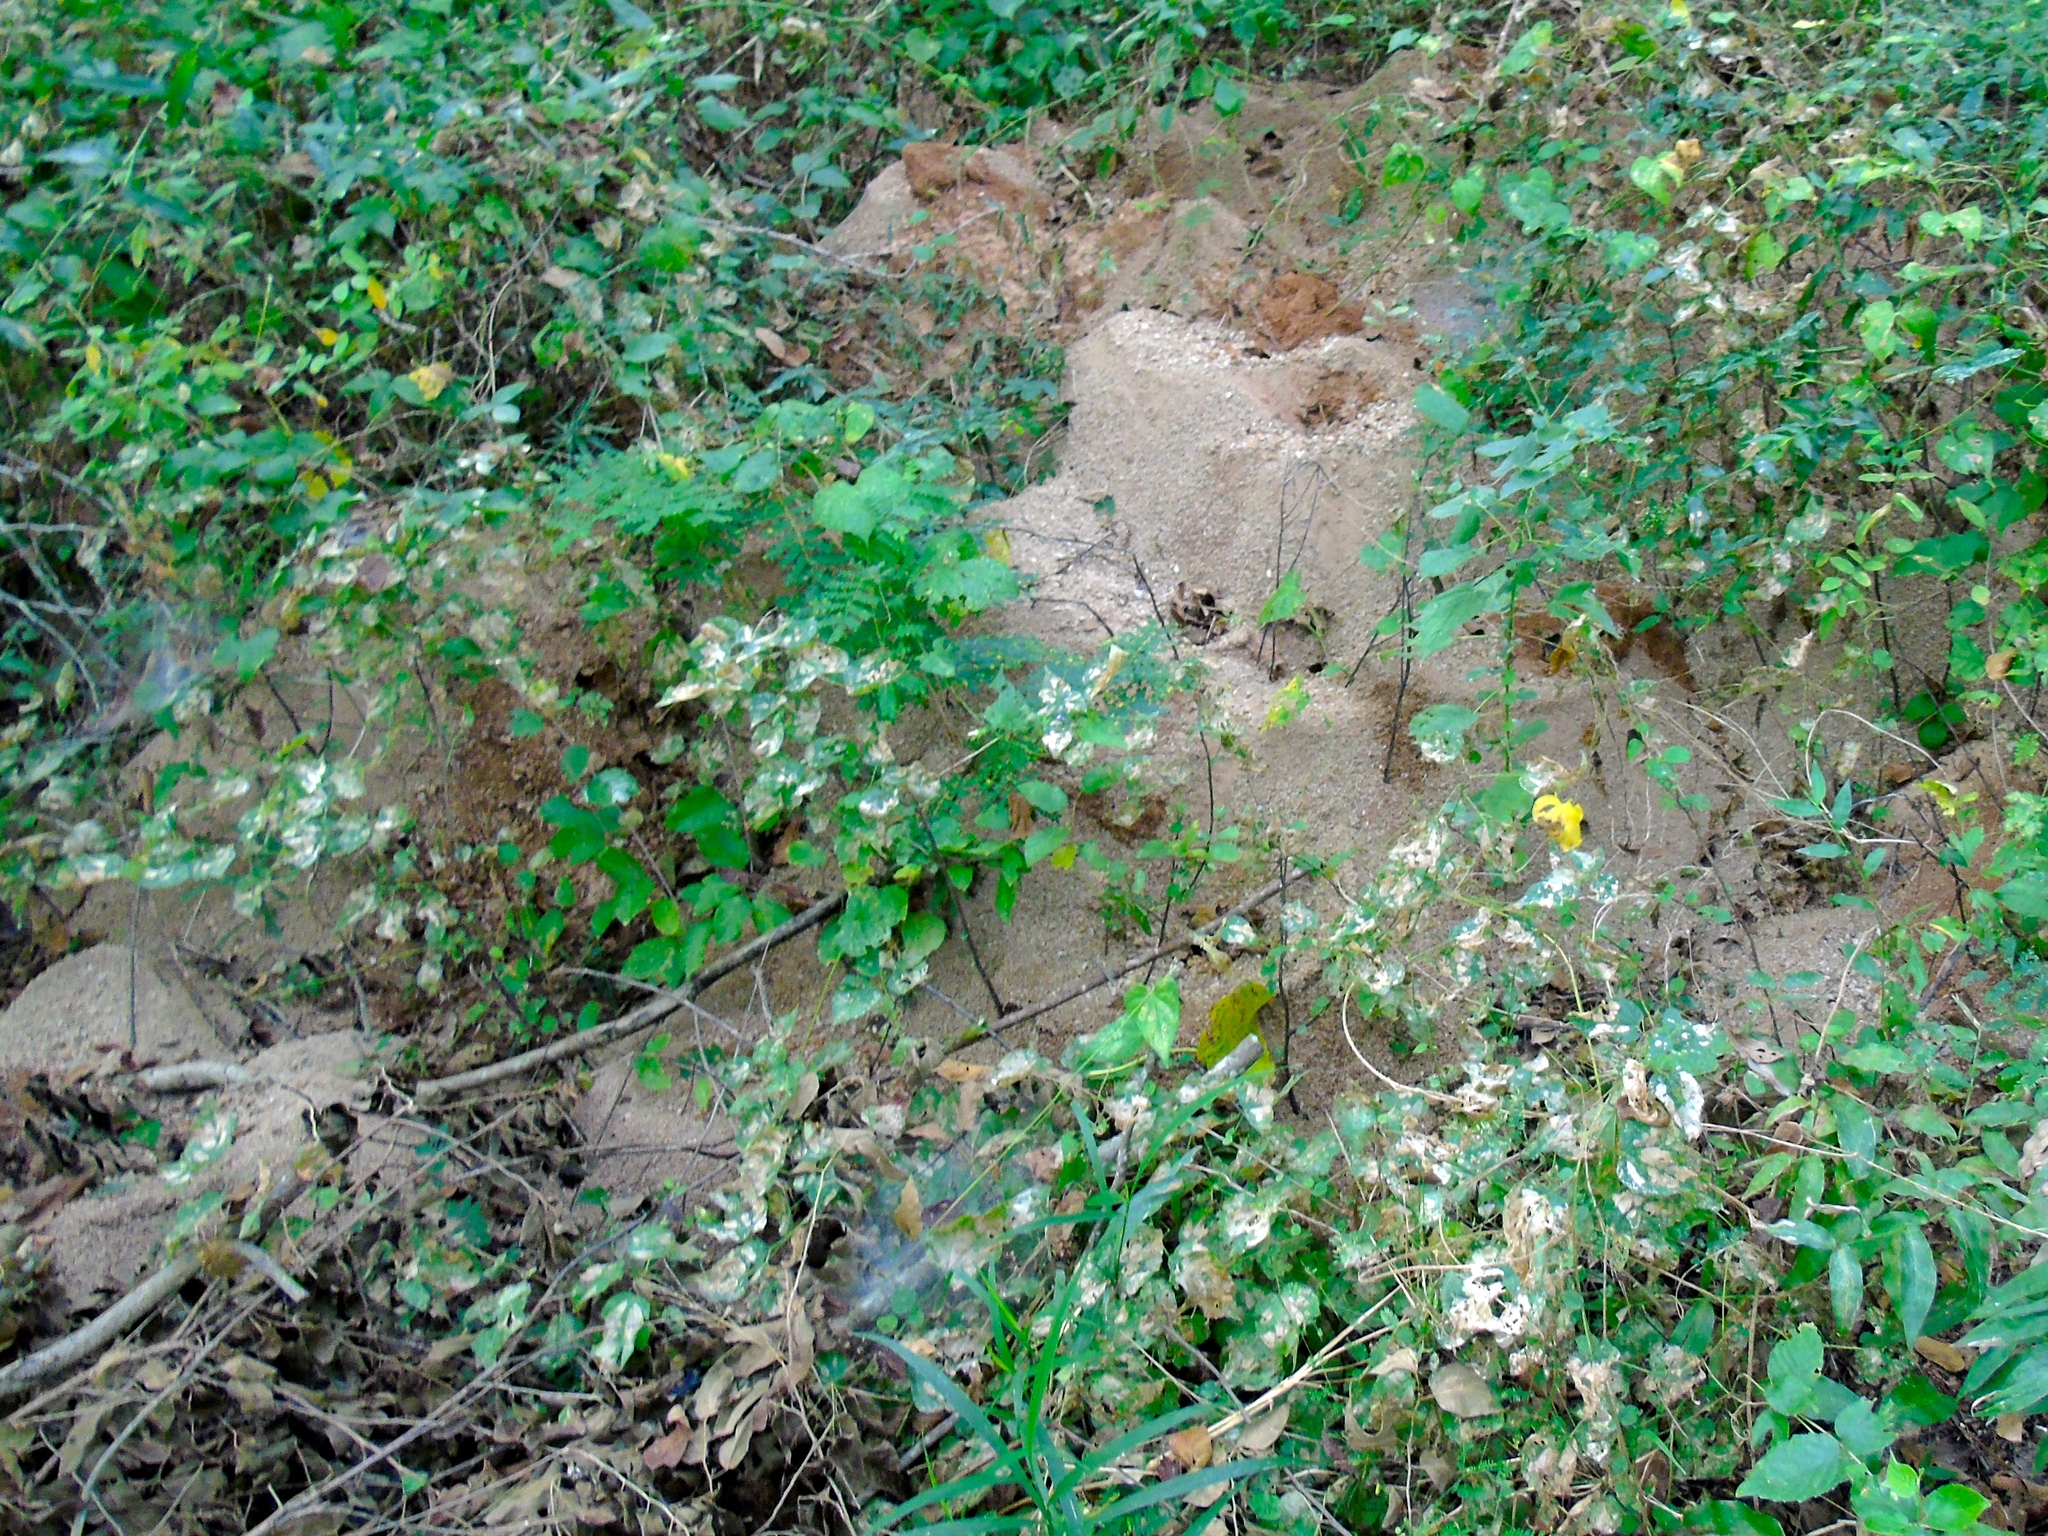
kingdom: Animalia
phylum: Arthropoda
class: Insecta
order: Hymenoptera
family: Formicidae
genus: Myrmicinae
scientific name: Myrmicinae
